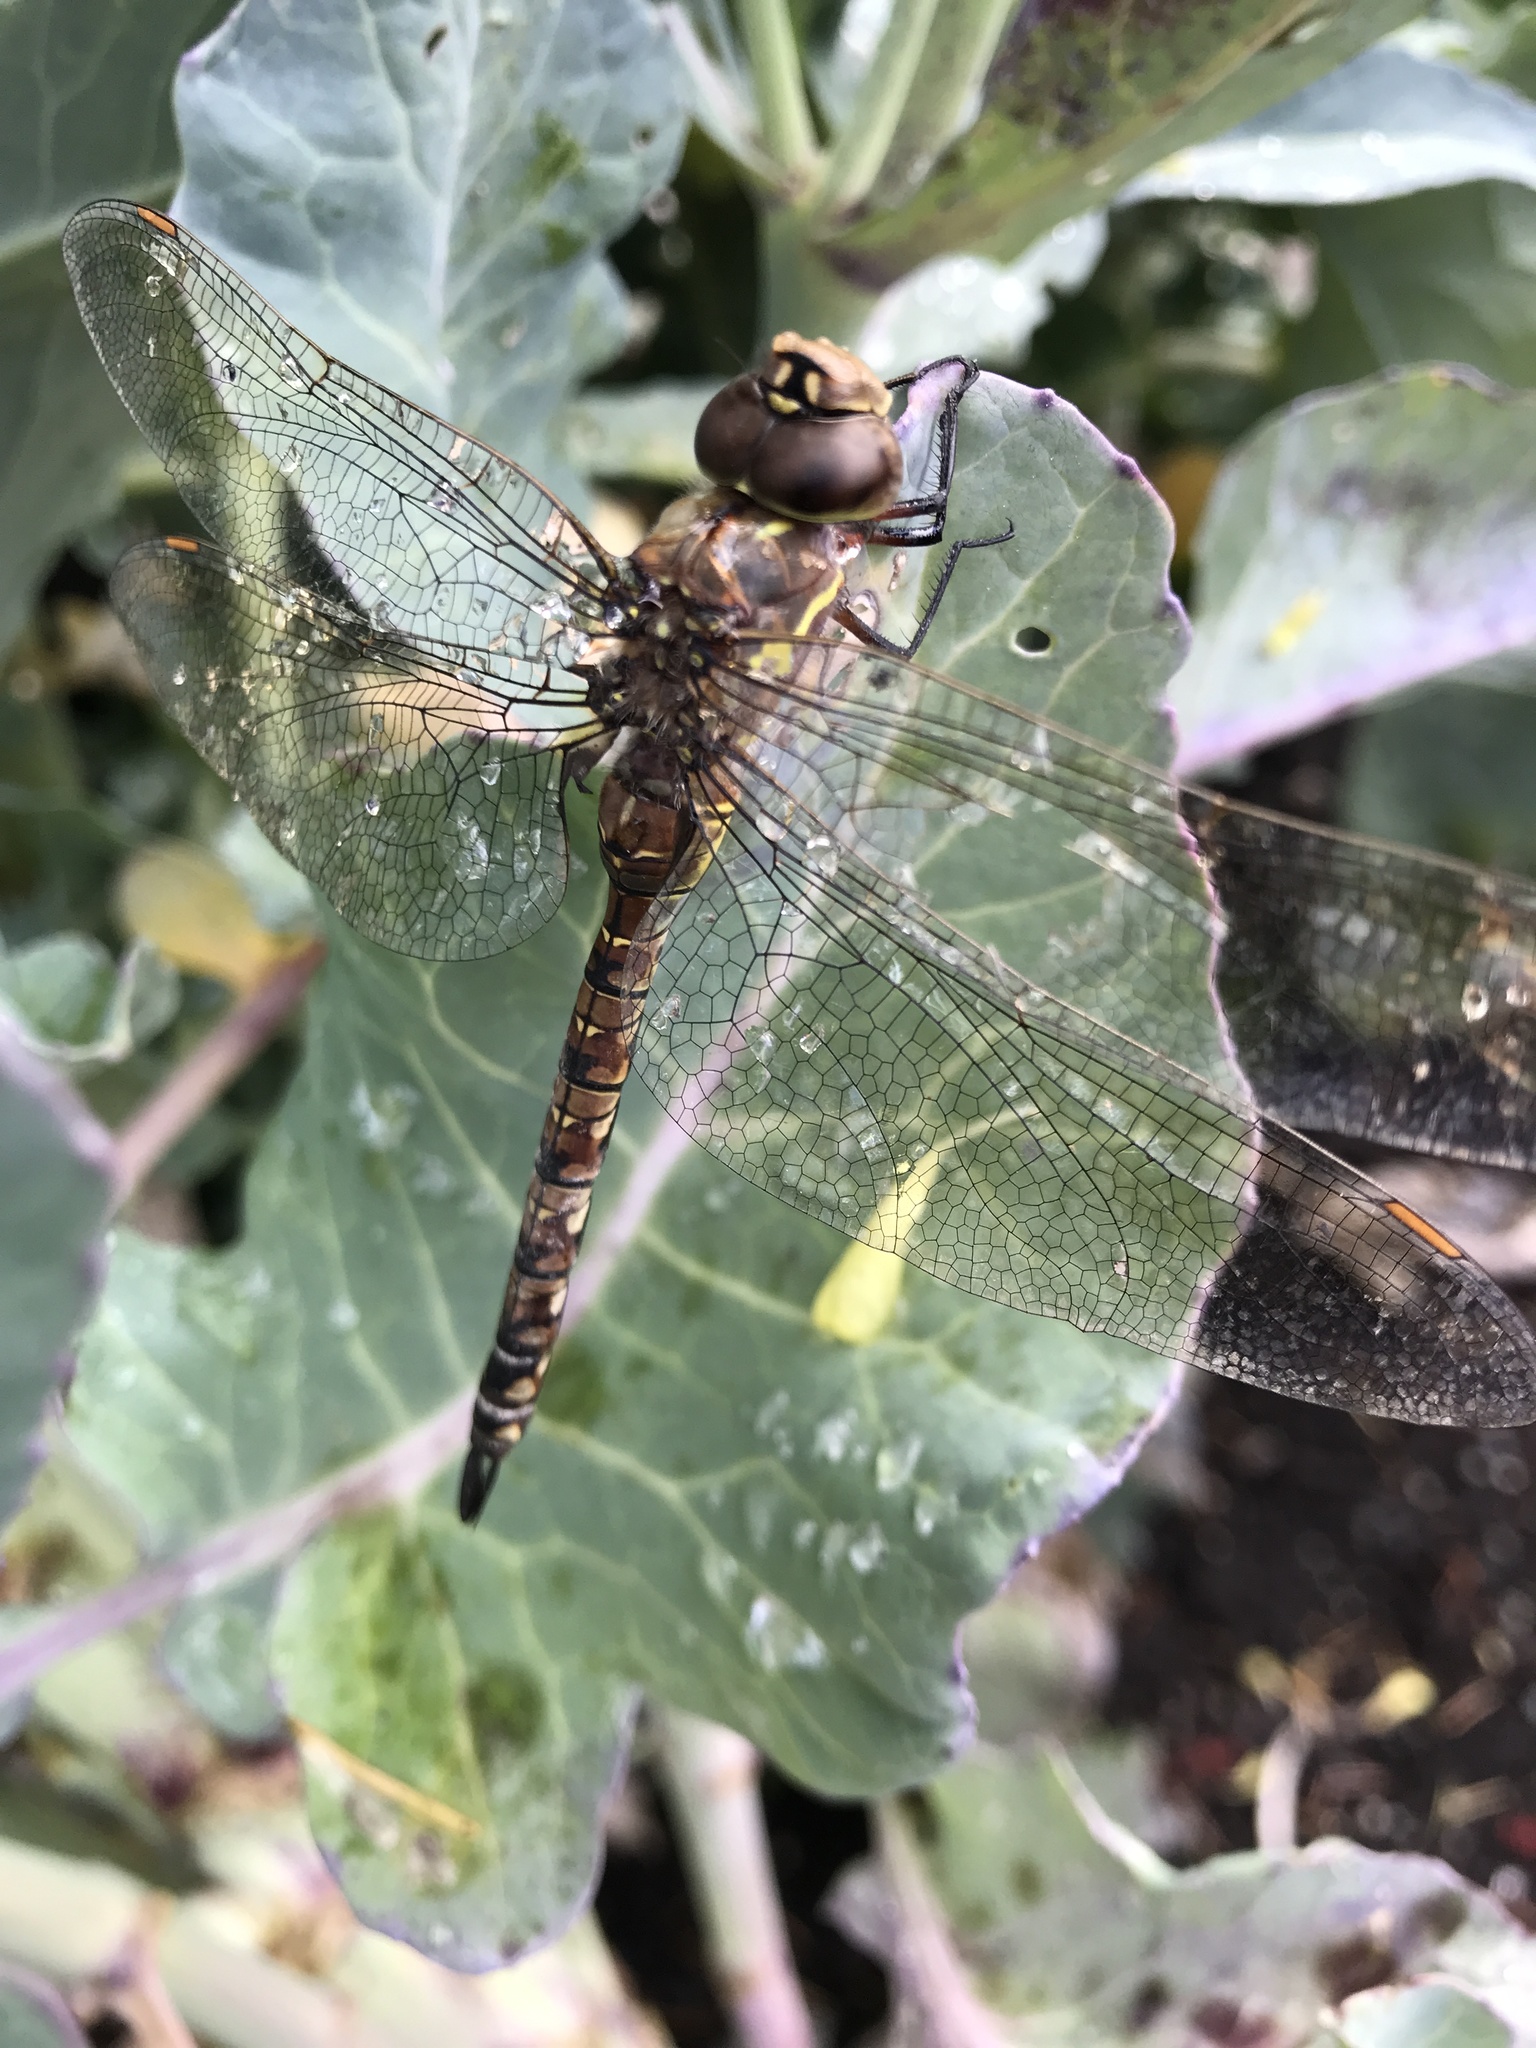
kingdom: Animalia
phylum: Arthropoda
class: Insecta
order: Odonata
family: Aeshnidae
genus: Rhionaeschna
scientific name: Rhionaeschna multicolor
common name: Blue-eyed darner
